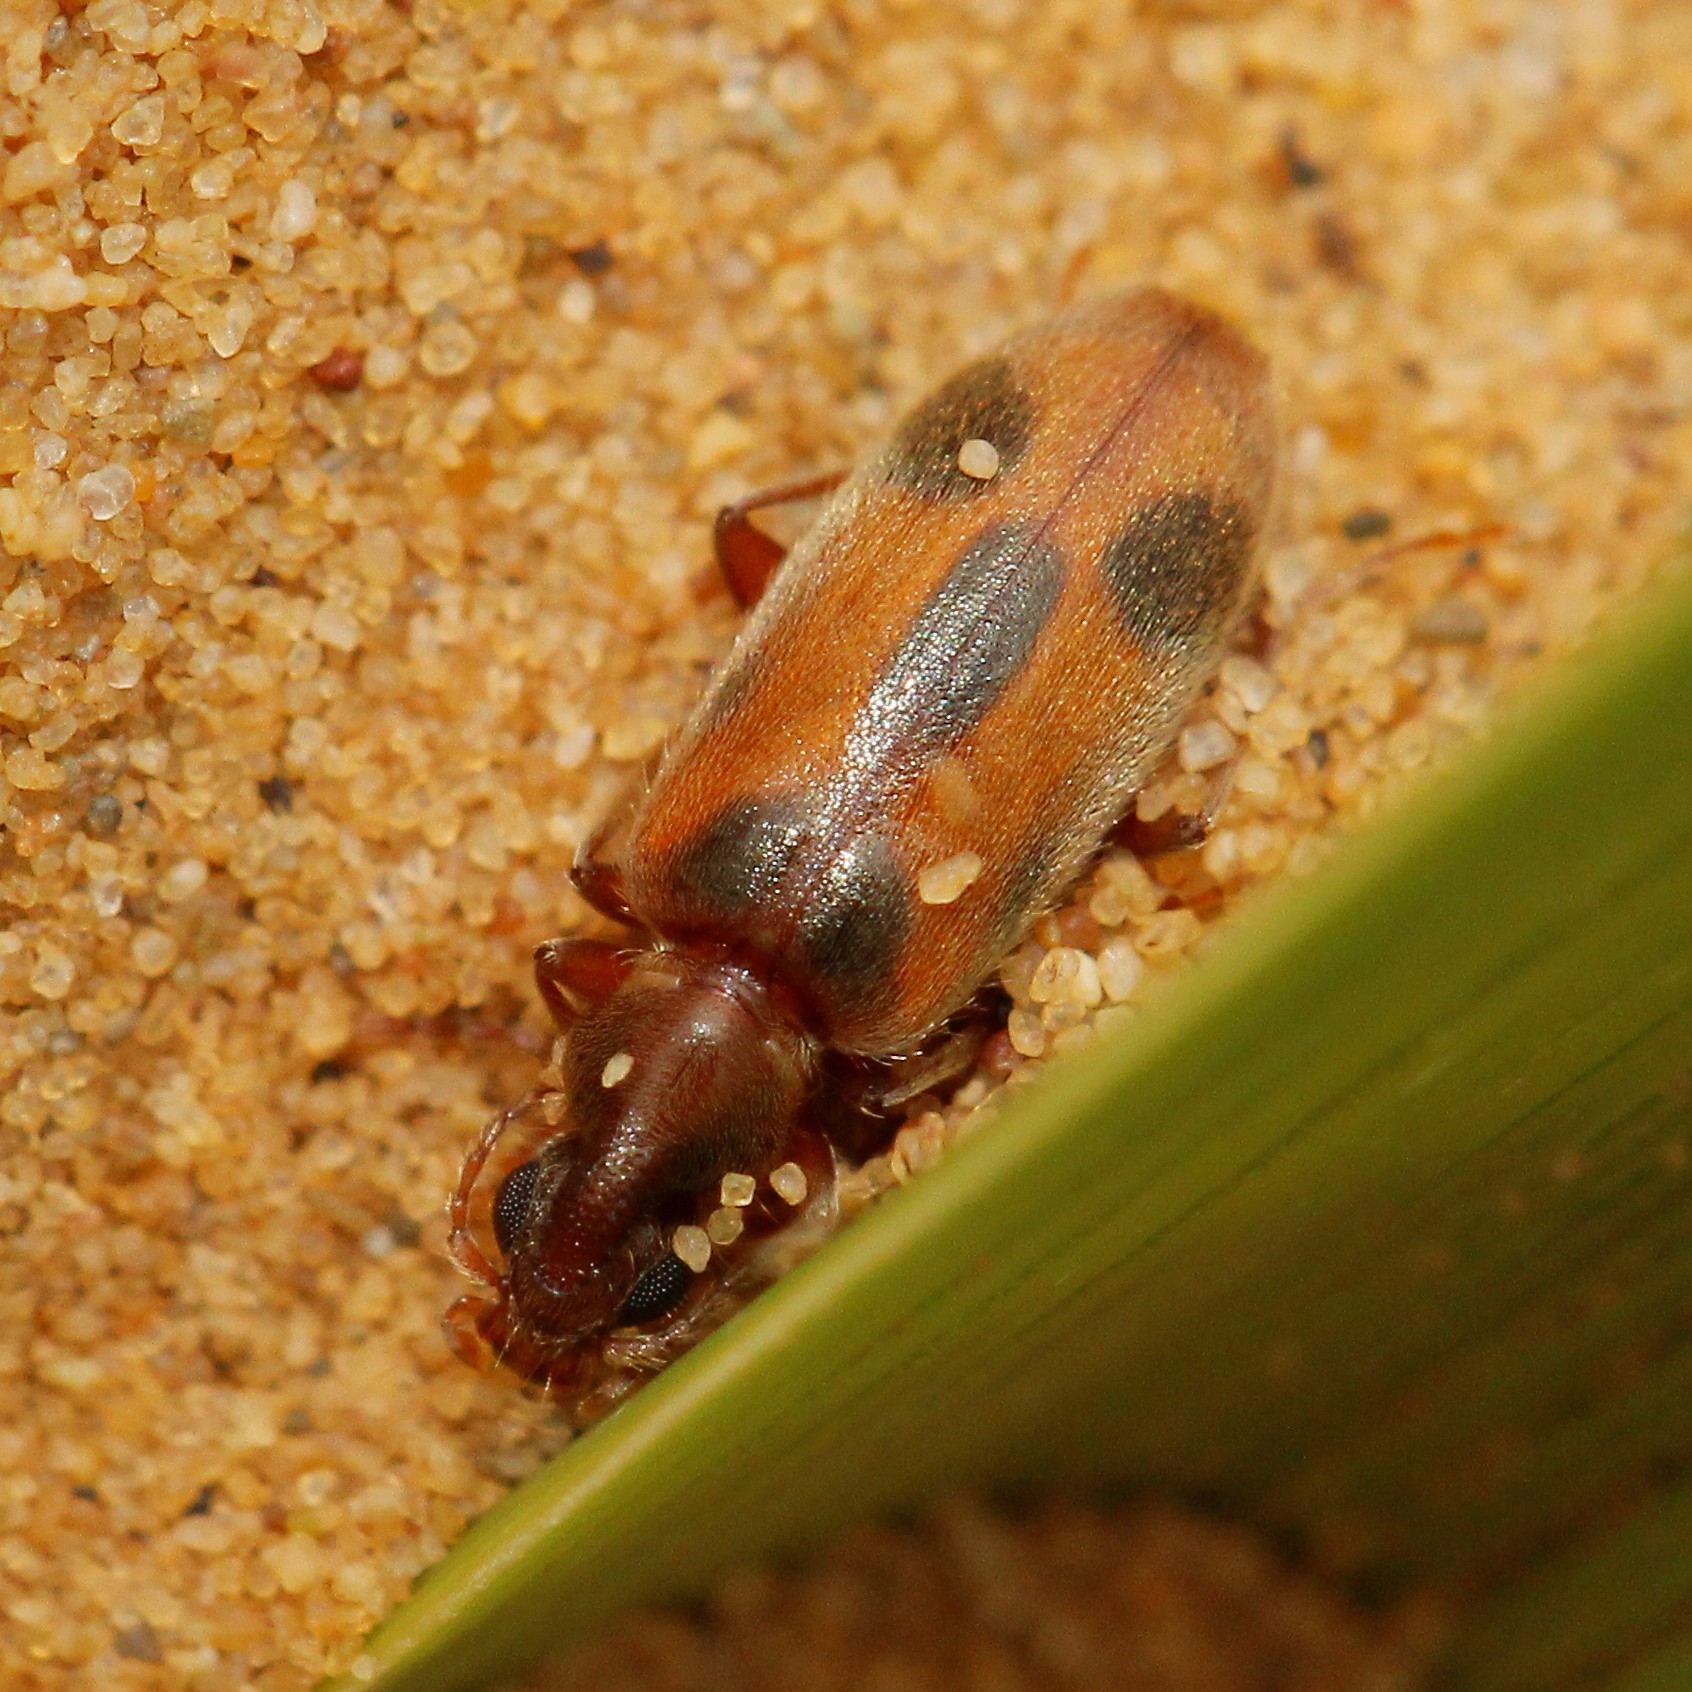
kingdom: Animalia
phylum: Arthropoda
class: Insecta
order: Coleoptera
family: Anthicidae
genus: Notoxus
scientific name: Notoxus monoceros
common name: Monoceros beetle
